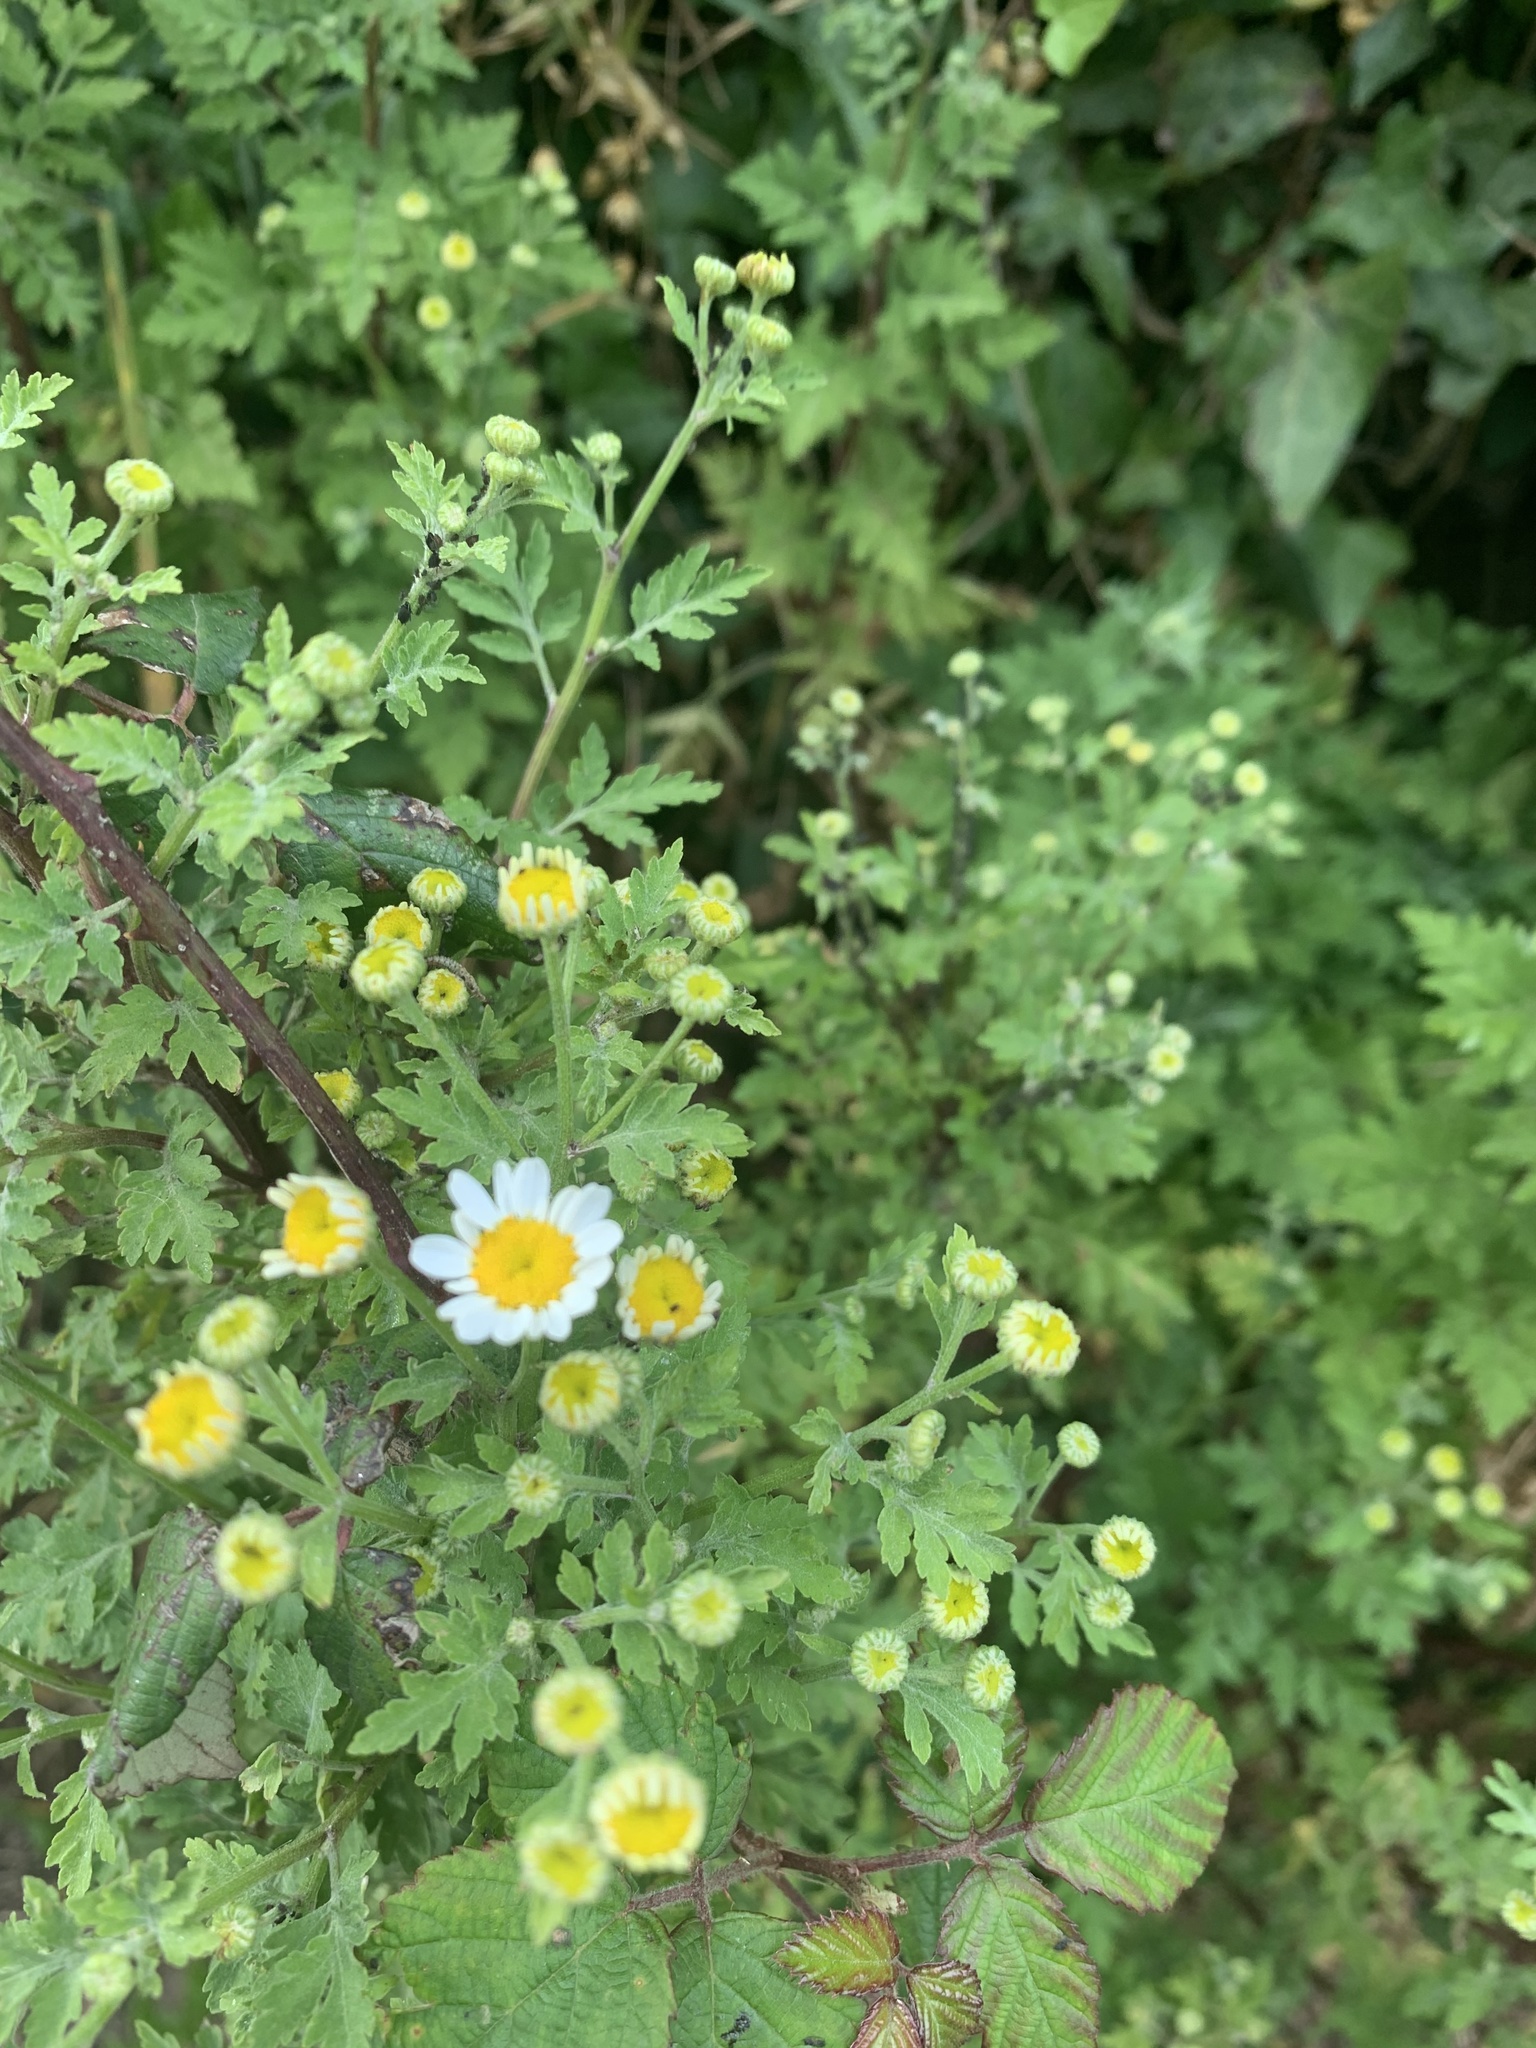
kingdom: Plantae
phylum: Tracheophyta
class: Magnoliopsida
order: Asterales
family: Asteraceae
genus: Tanacetum
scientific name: Tanacetum parthenium
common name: Feverfew
